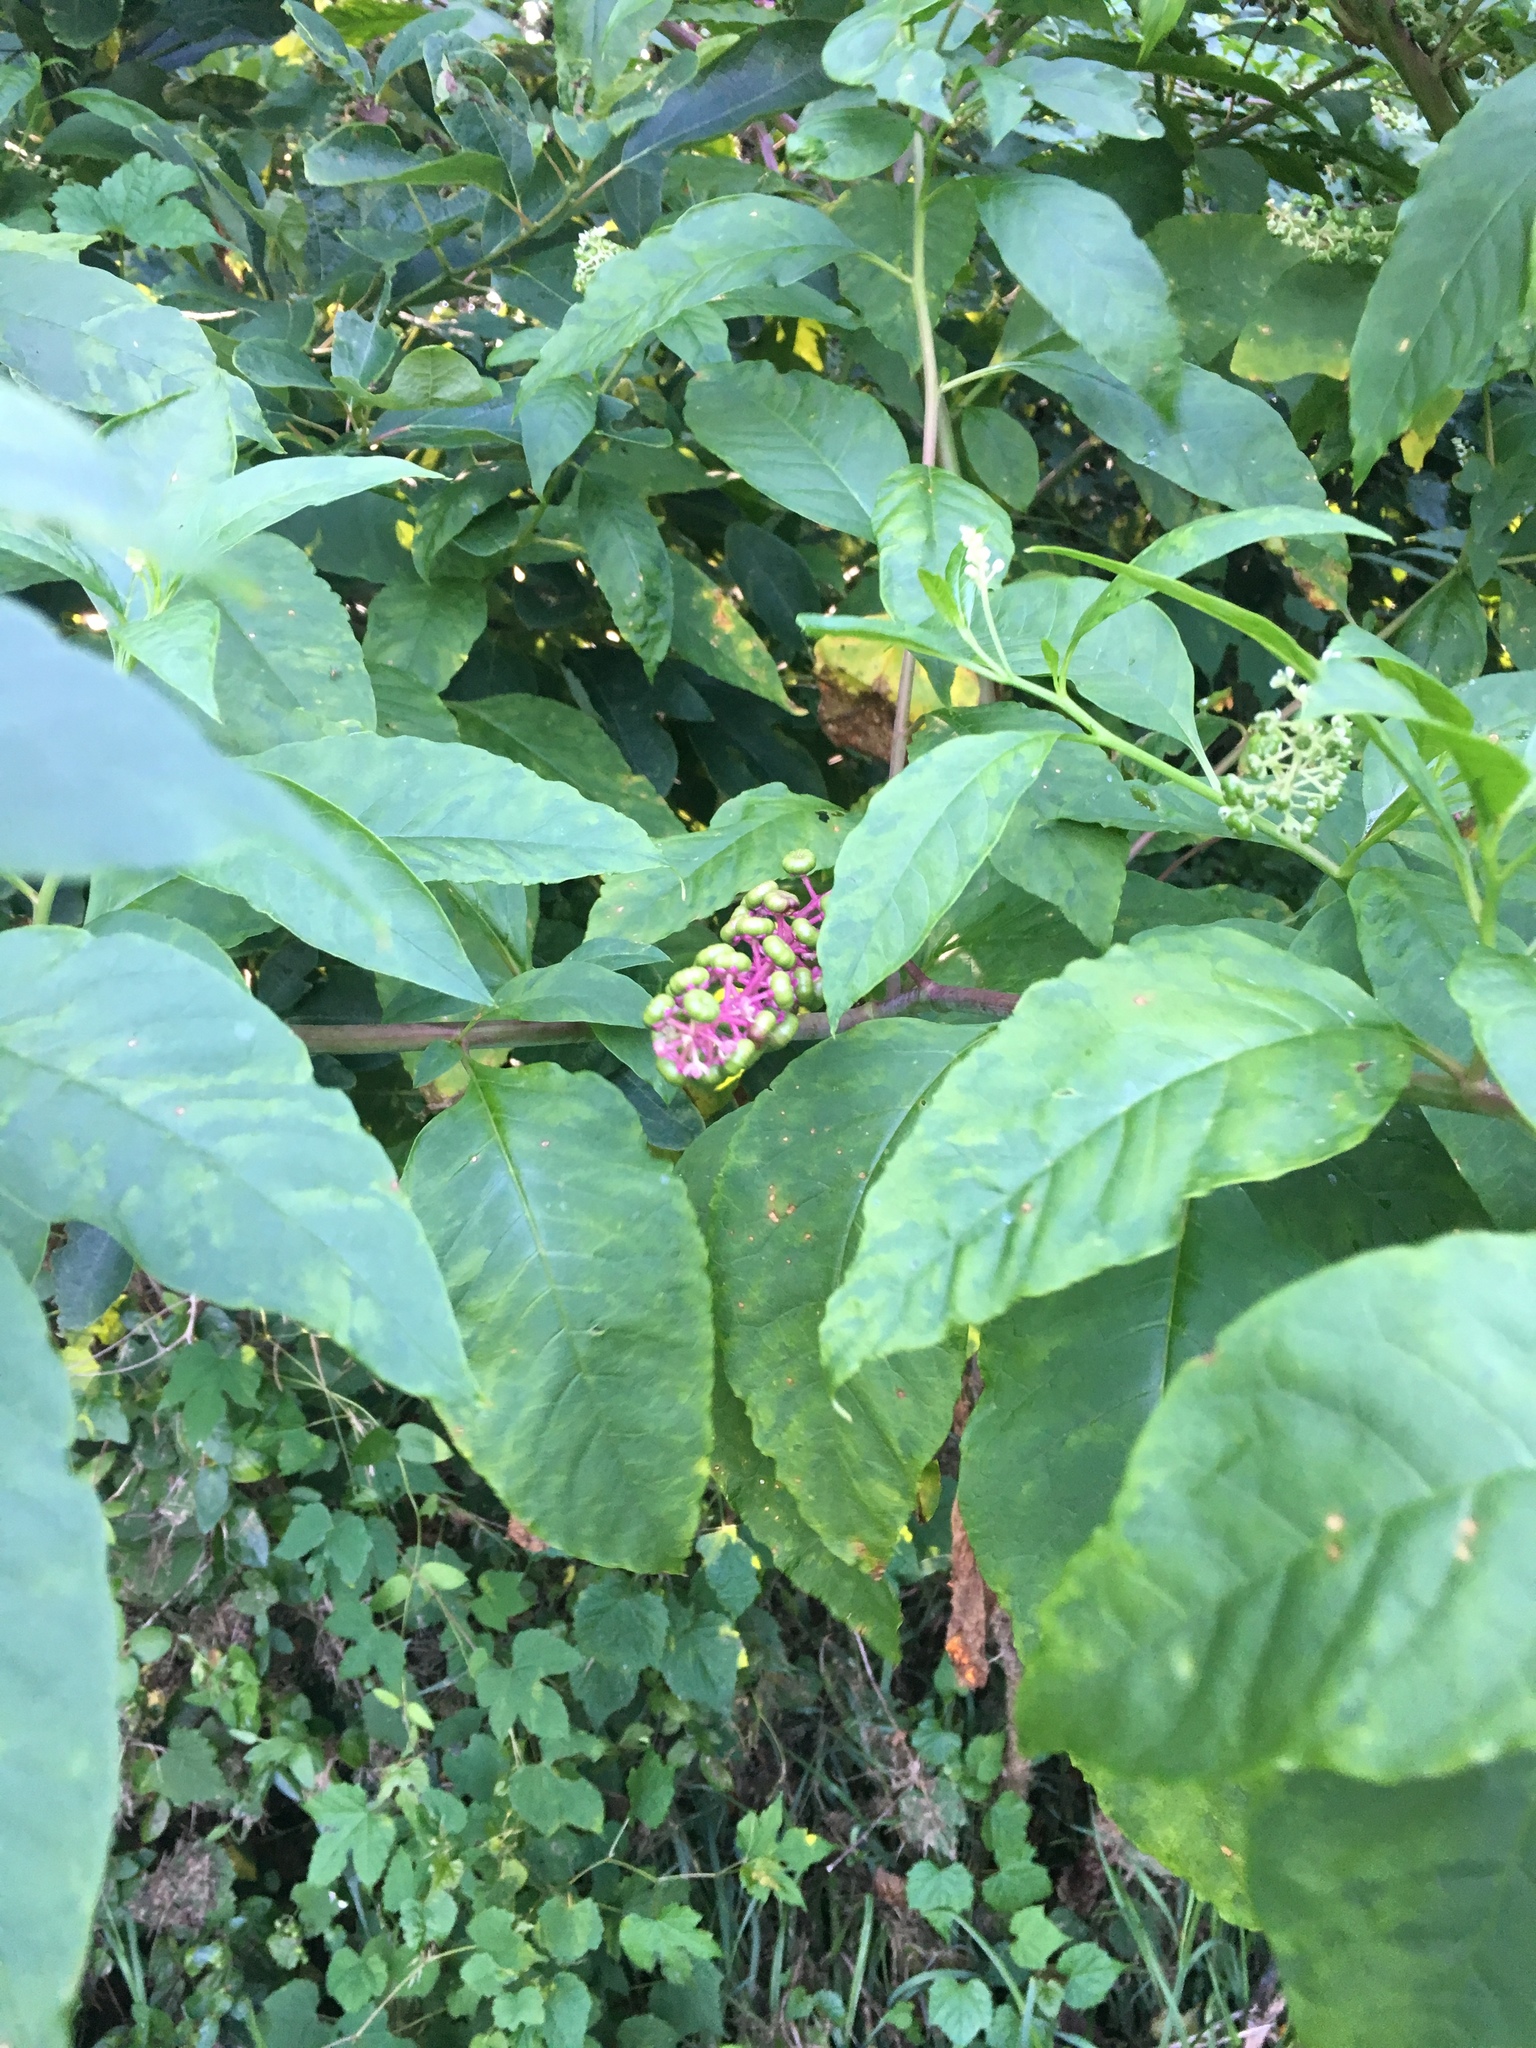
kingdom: Plantae
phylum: Tracheophyta
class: Magnoliopsida
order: Caryophyllales
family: Phytolaccaceae
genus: Phytolacca
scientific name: Phytolacca americana
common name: American pokeweed
